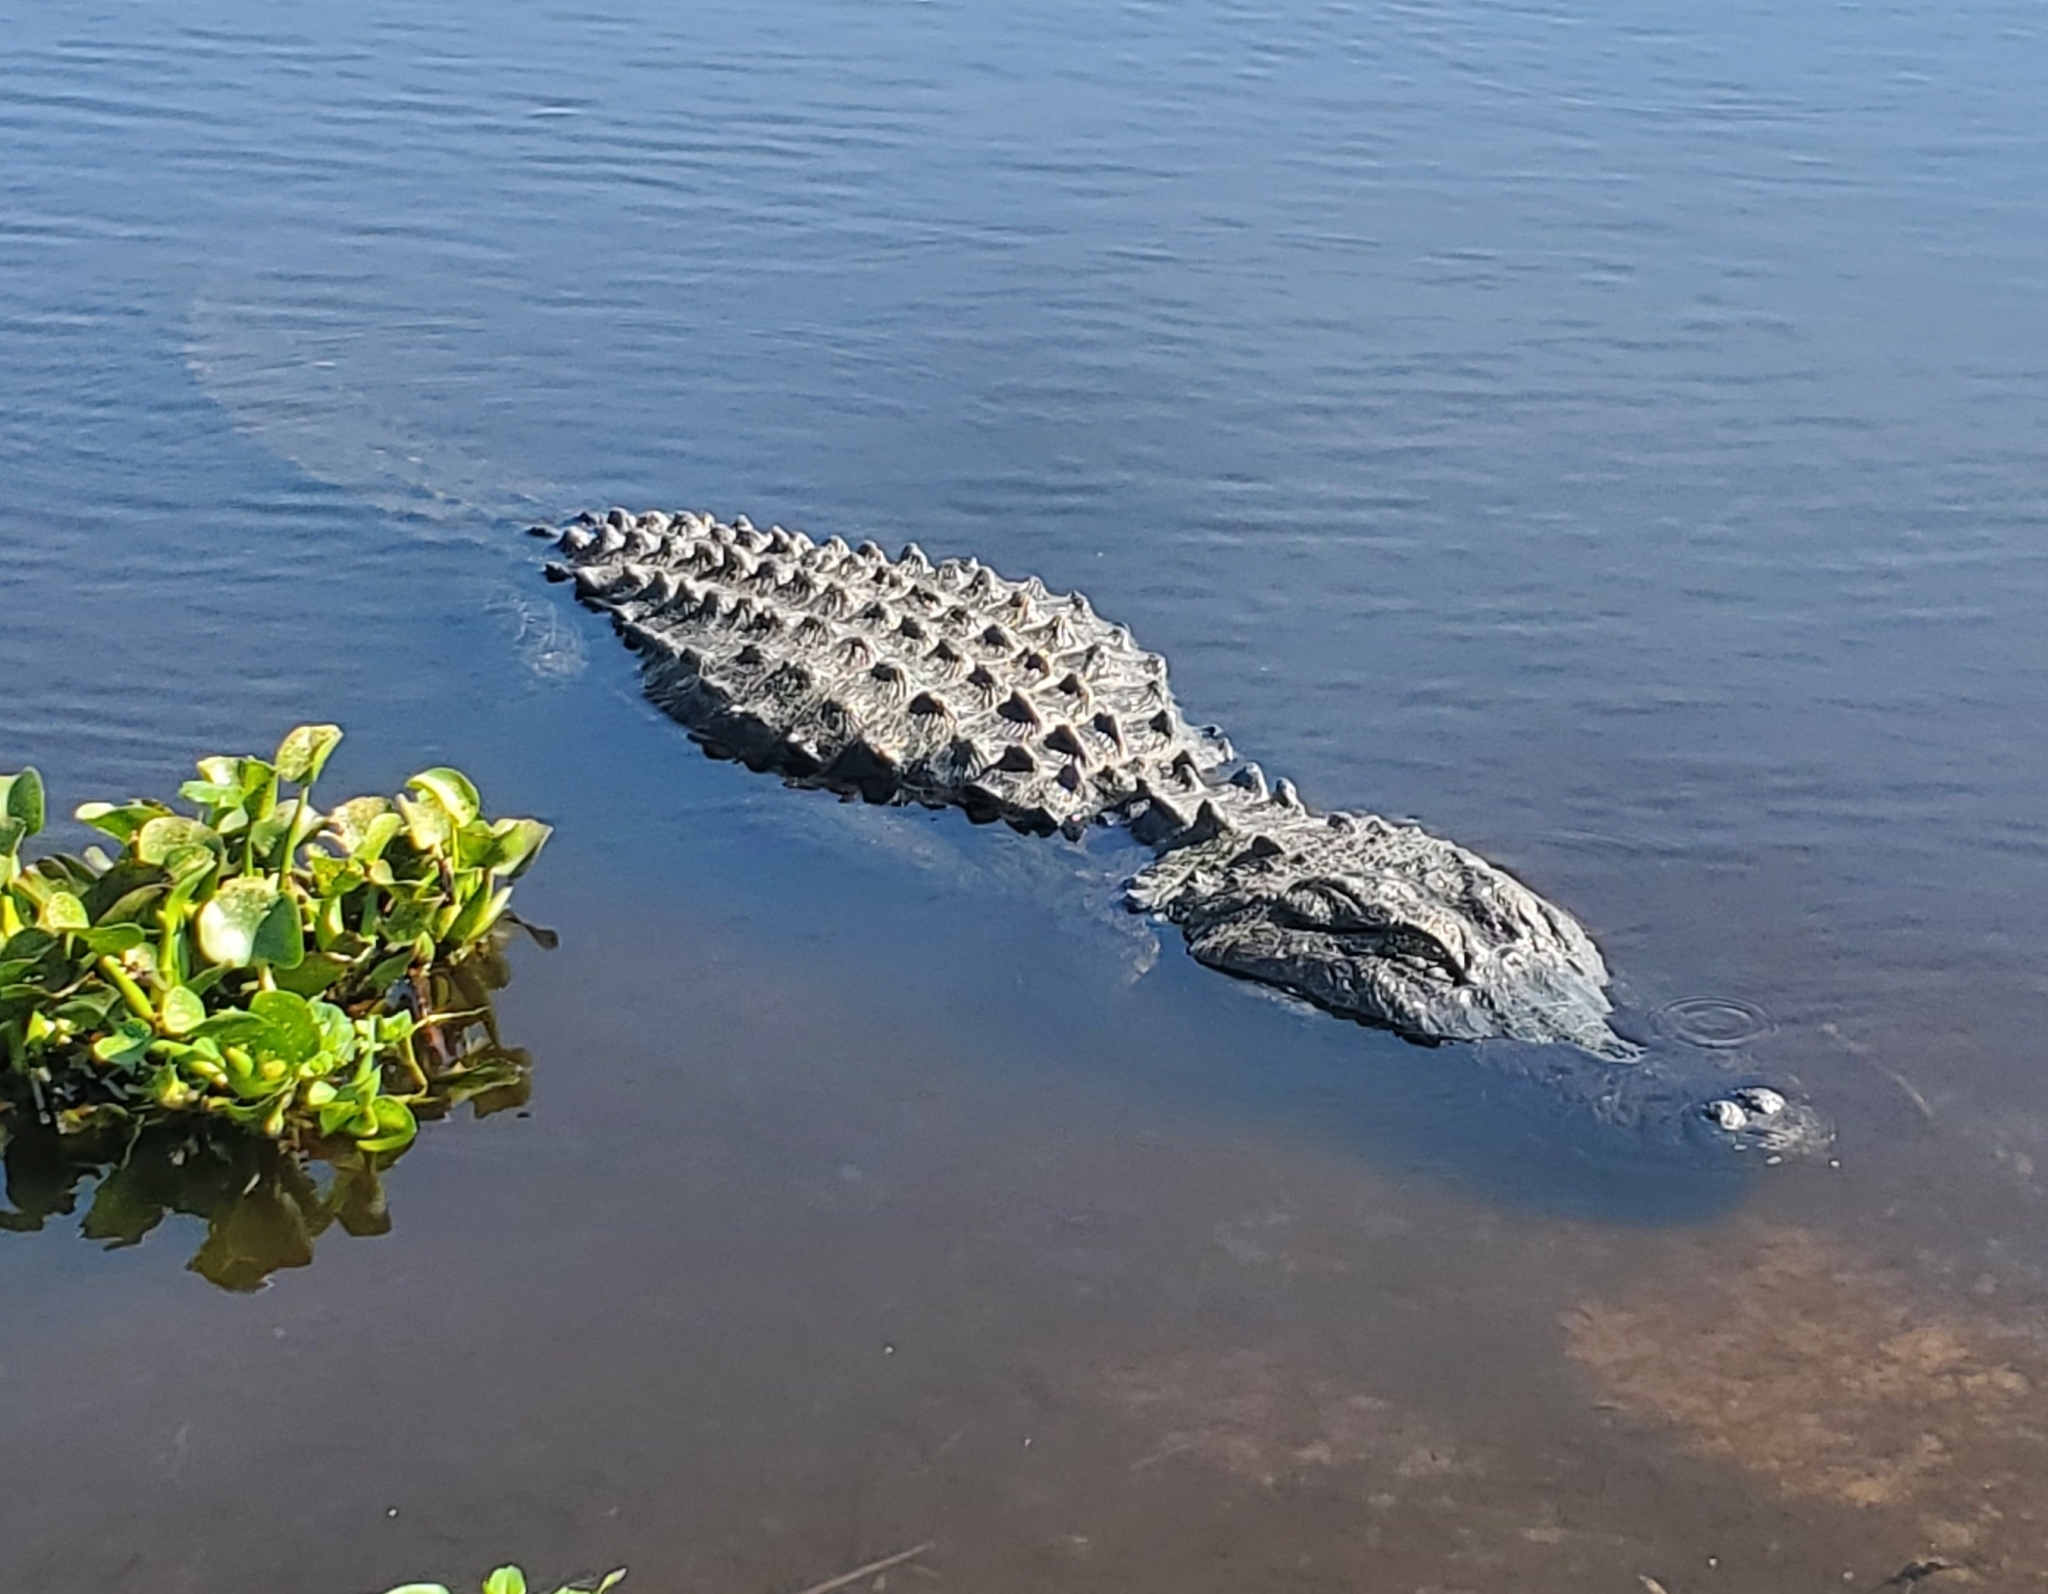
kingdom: Animalia
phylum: Chordata
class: Crocodylia
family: Alligatoridae
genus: Alligator
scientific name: Alligator mississippiensis
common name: American alligator
